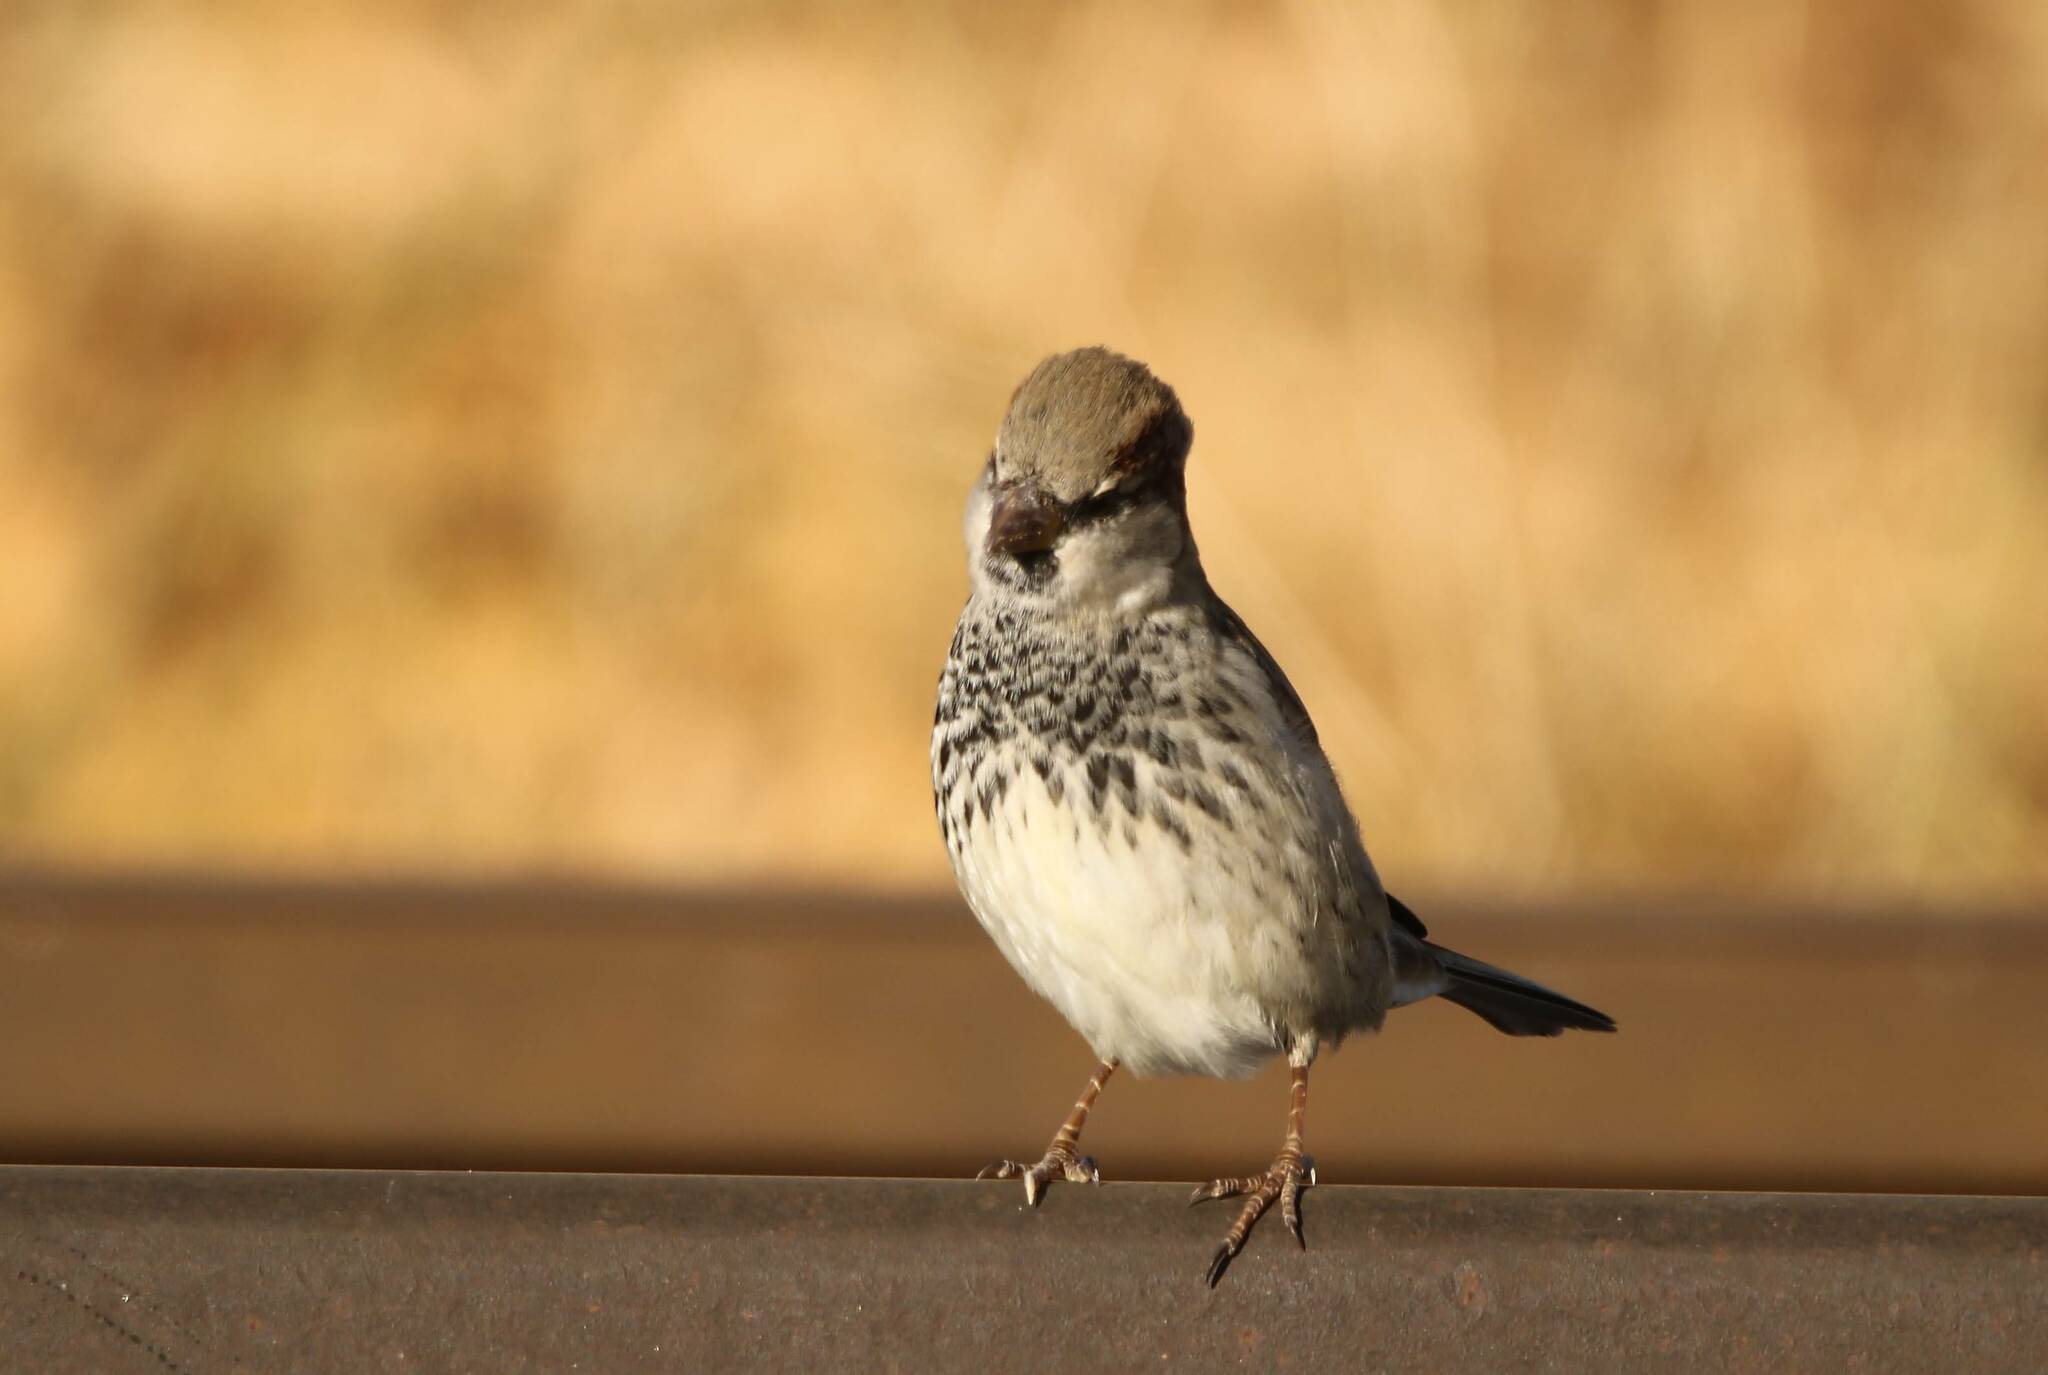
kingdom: Animalia
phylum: Chordata
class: Aves
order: Passeriformes
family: Passeridae
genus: Passer
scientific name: Passer domesticus
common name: House sparrow
